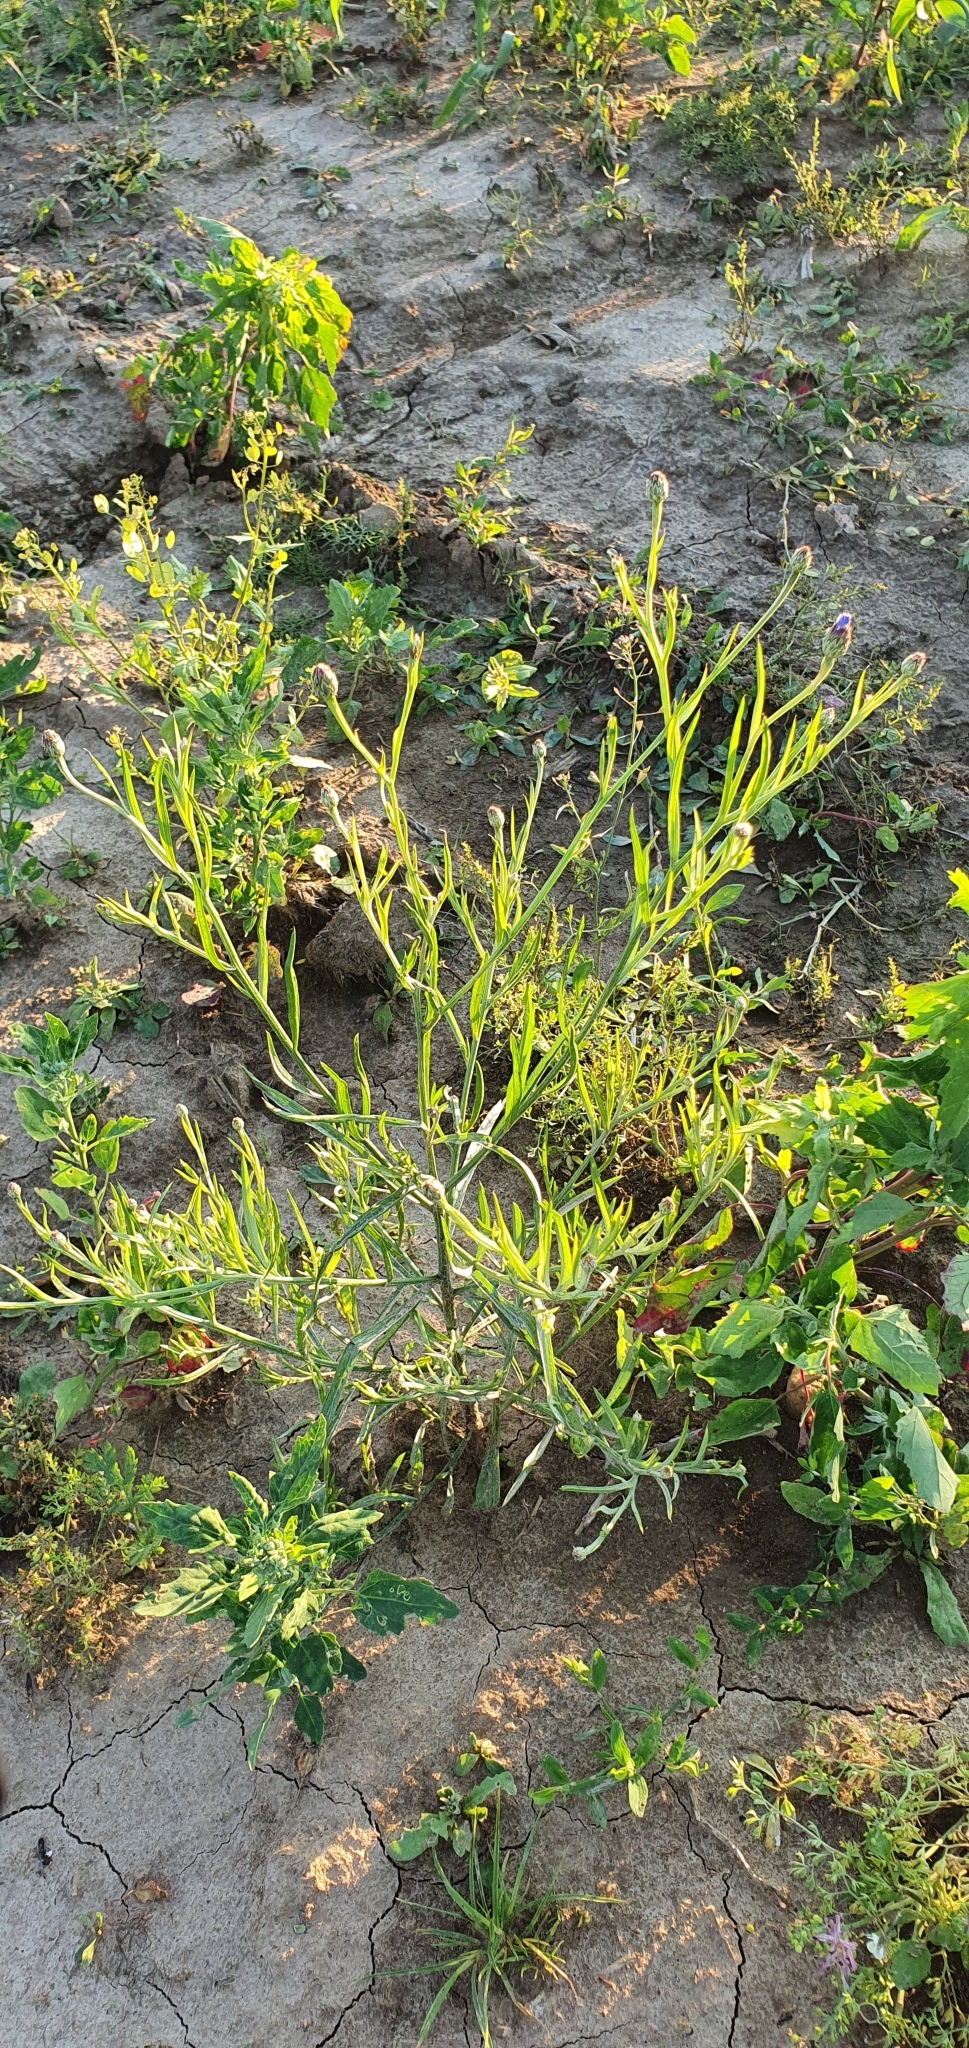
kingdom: Plantae
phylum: Tracheophyta
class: Magnoliopsida
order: Asterales
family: Asteraceae
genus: Centaurea
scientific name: Centaurea cyanus
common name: Cornflower
